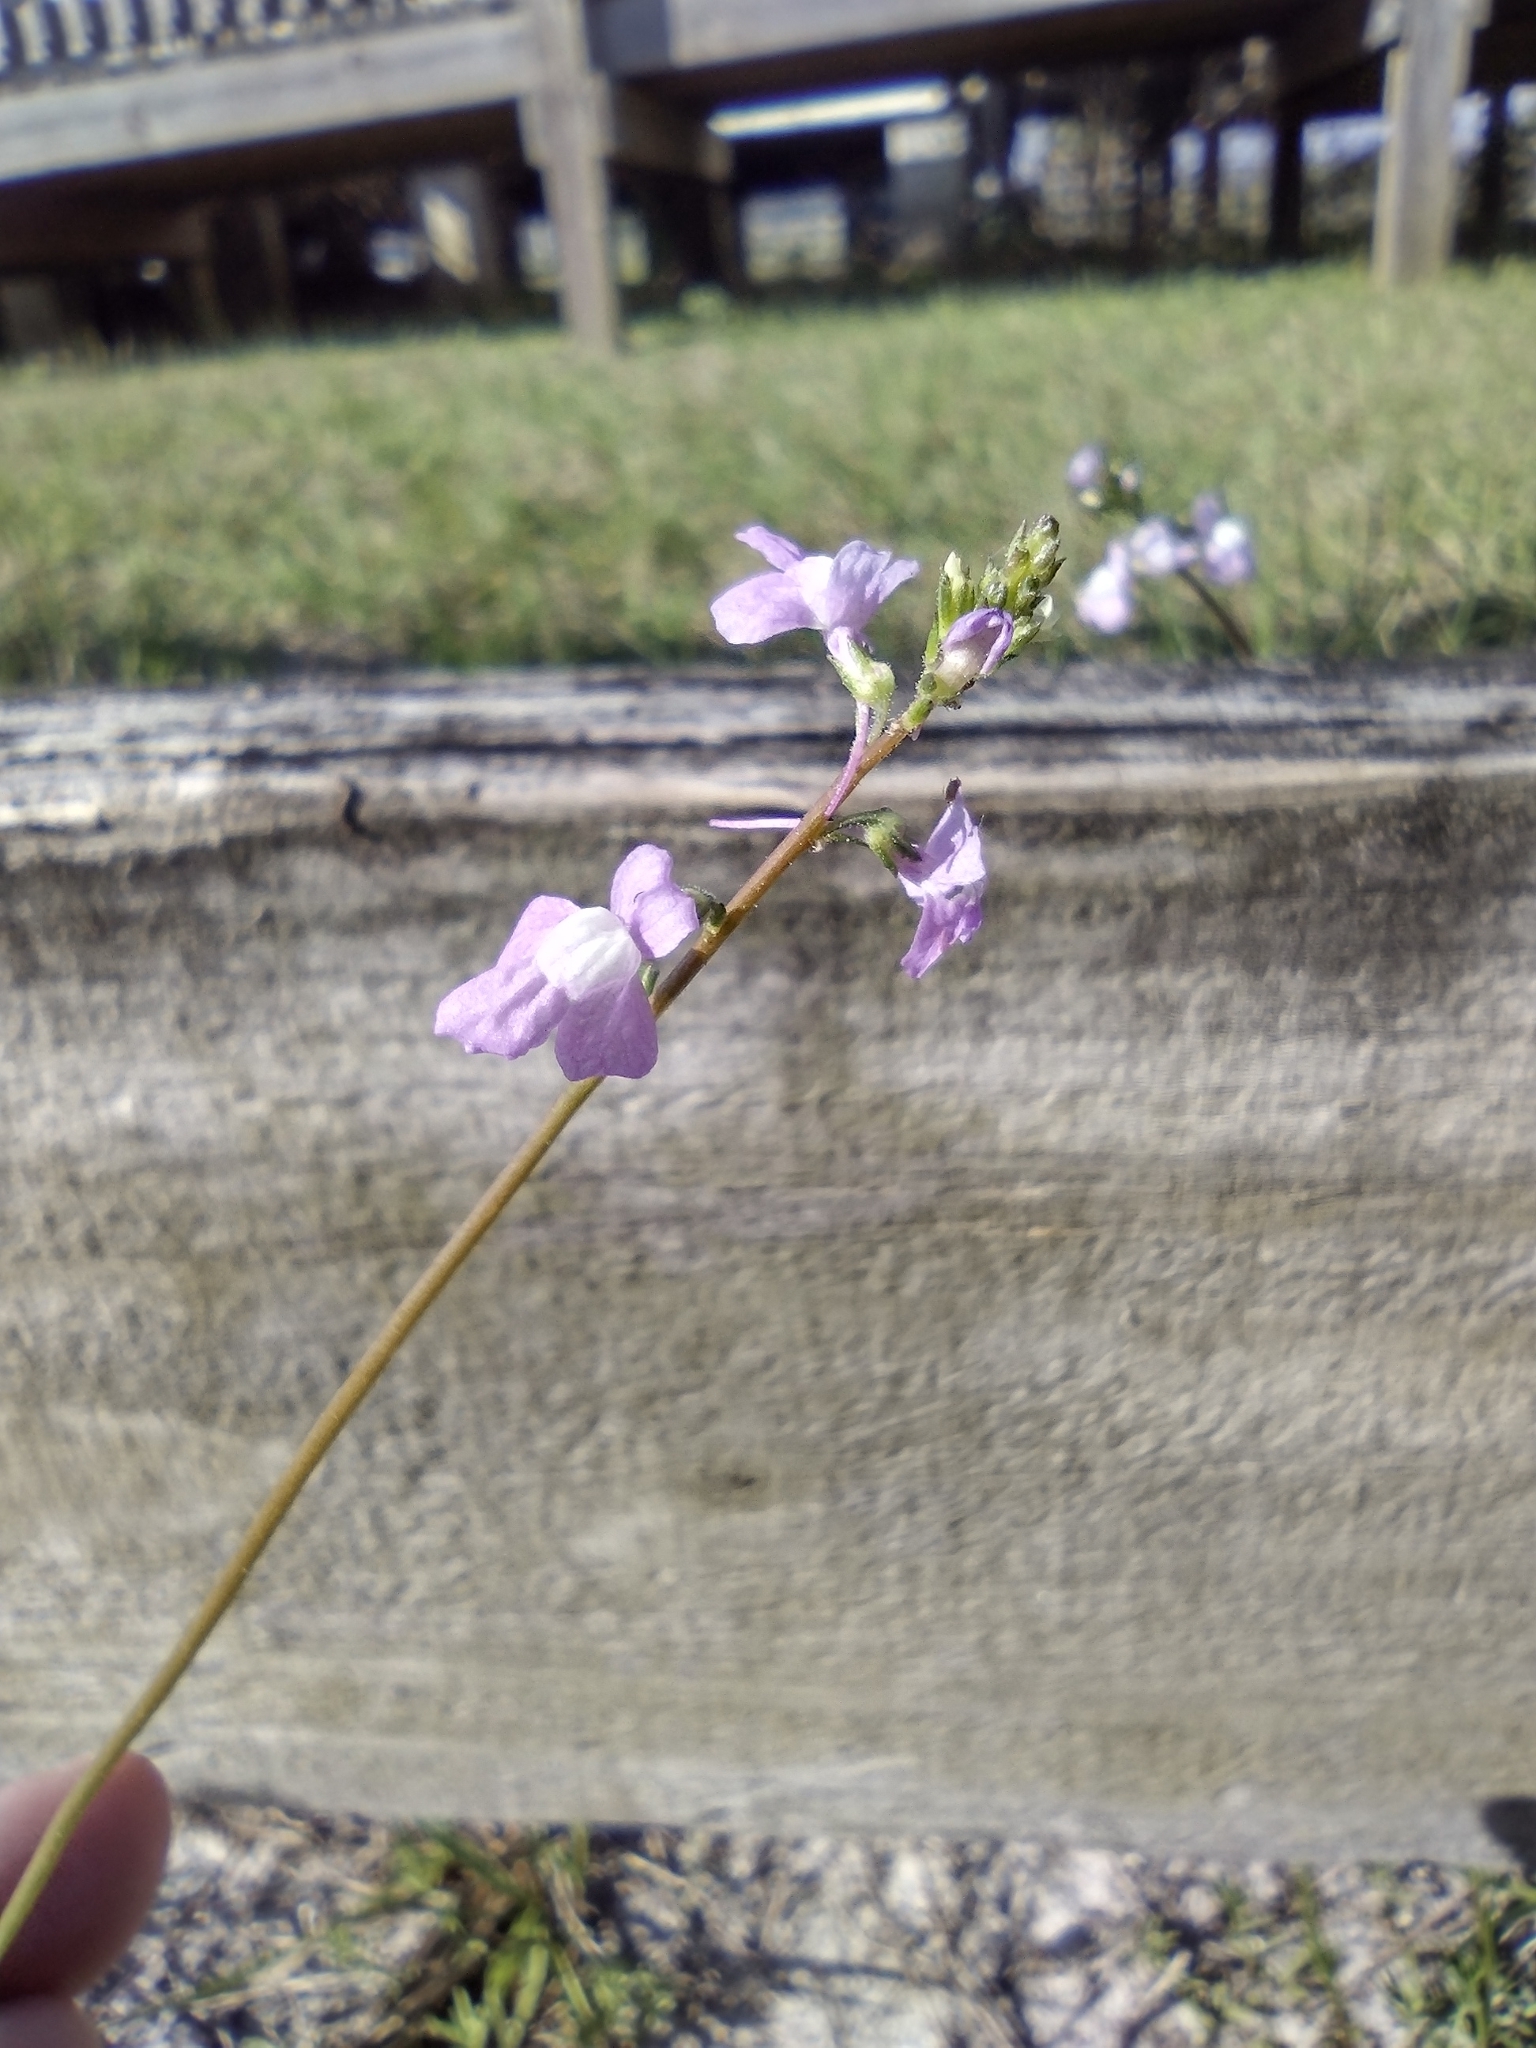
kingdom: Plantae
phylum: Tracheophyta
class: Magnoliopsida
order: Lamiales
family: Plantaginaceae
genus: Nuttallanthus
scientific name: Nuttallanthus canadensis
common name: Blue toadflax
